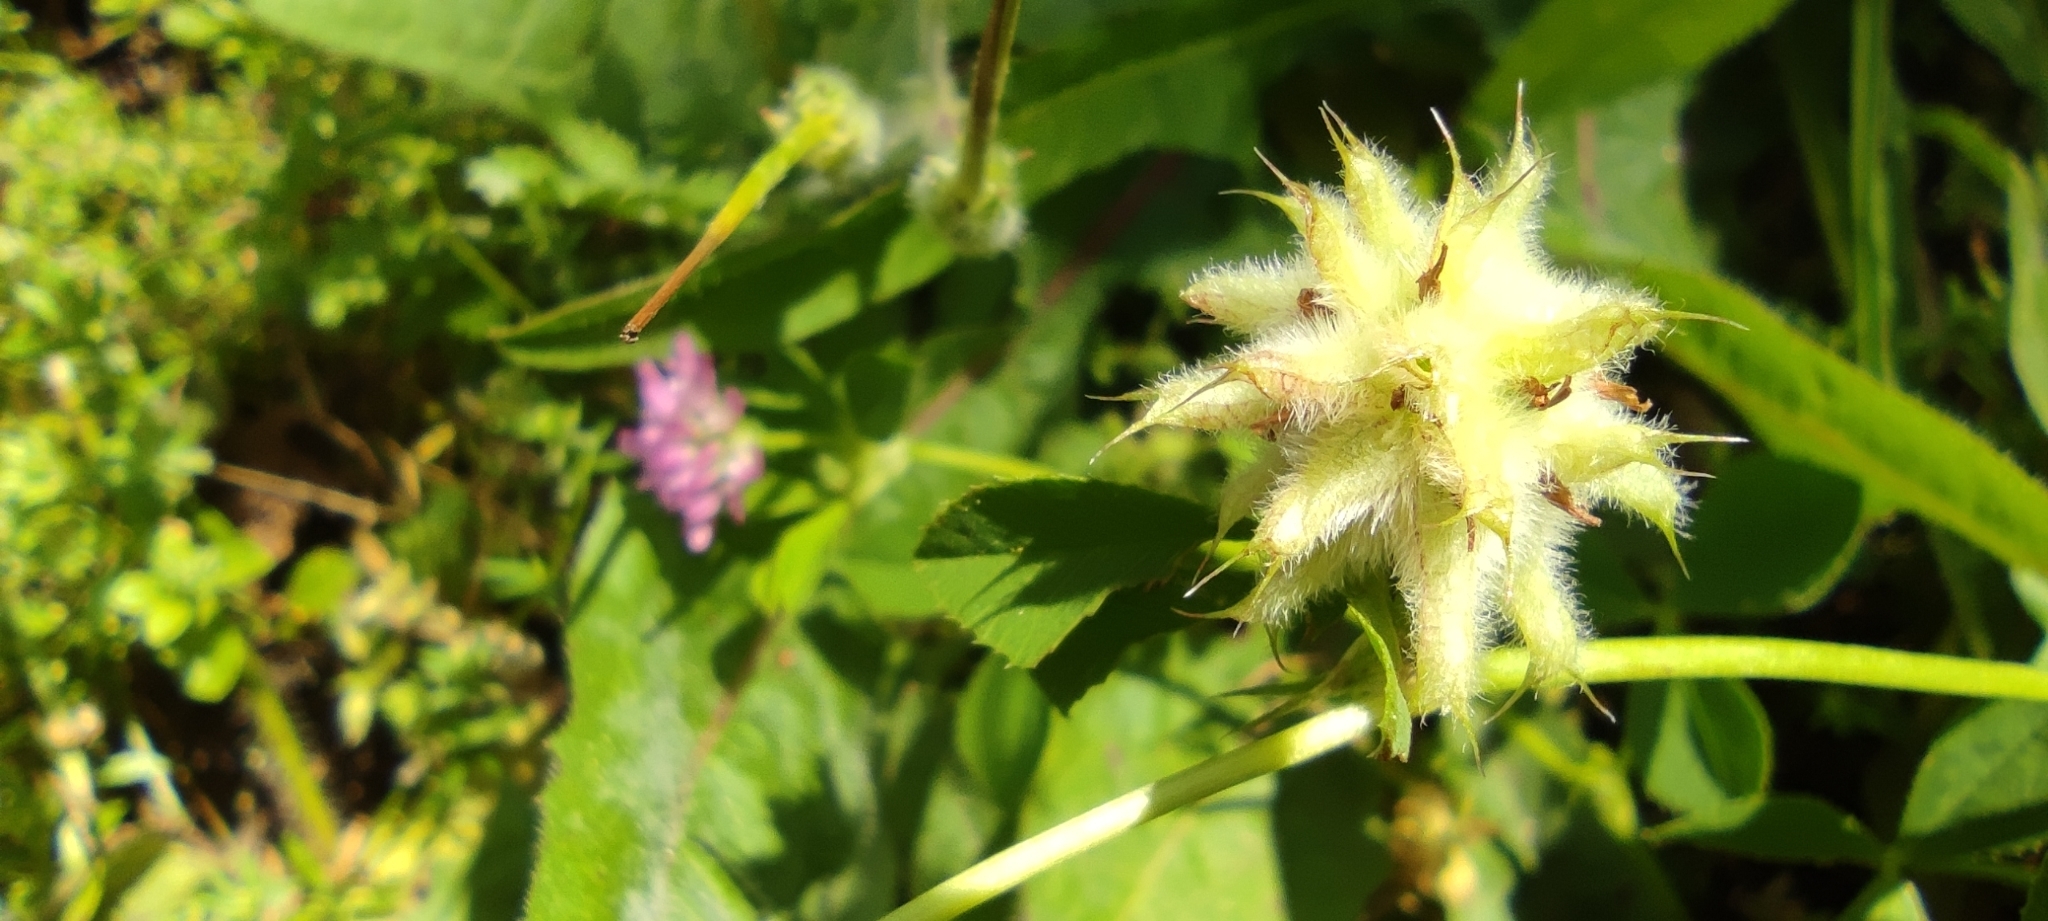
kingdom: Plantae
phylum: Tracheophyta
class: Magnoliopsida
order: Fabales
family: Fabaceae
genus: Trifolium
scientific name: Trifolium resupinatum
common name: Reversed clover
